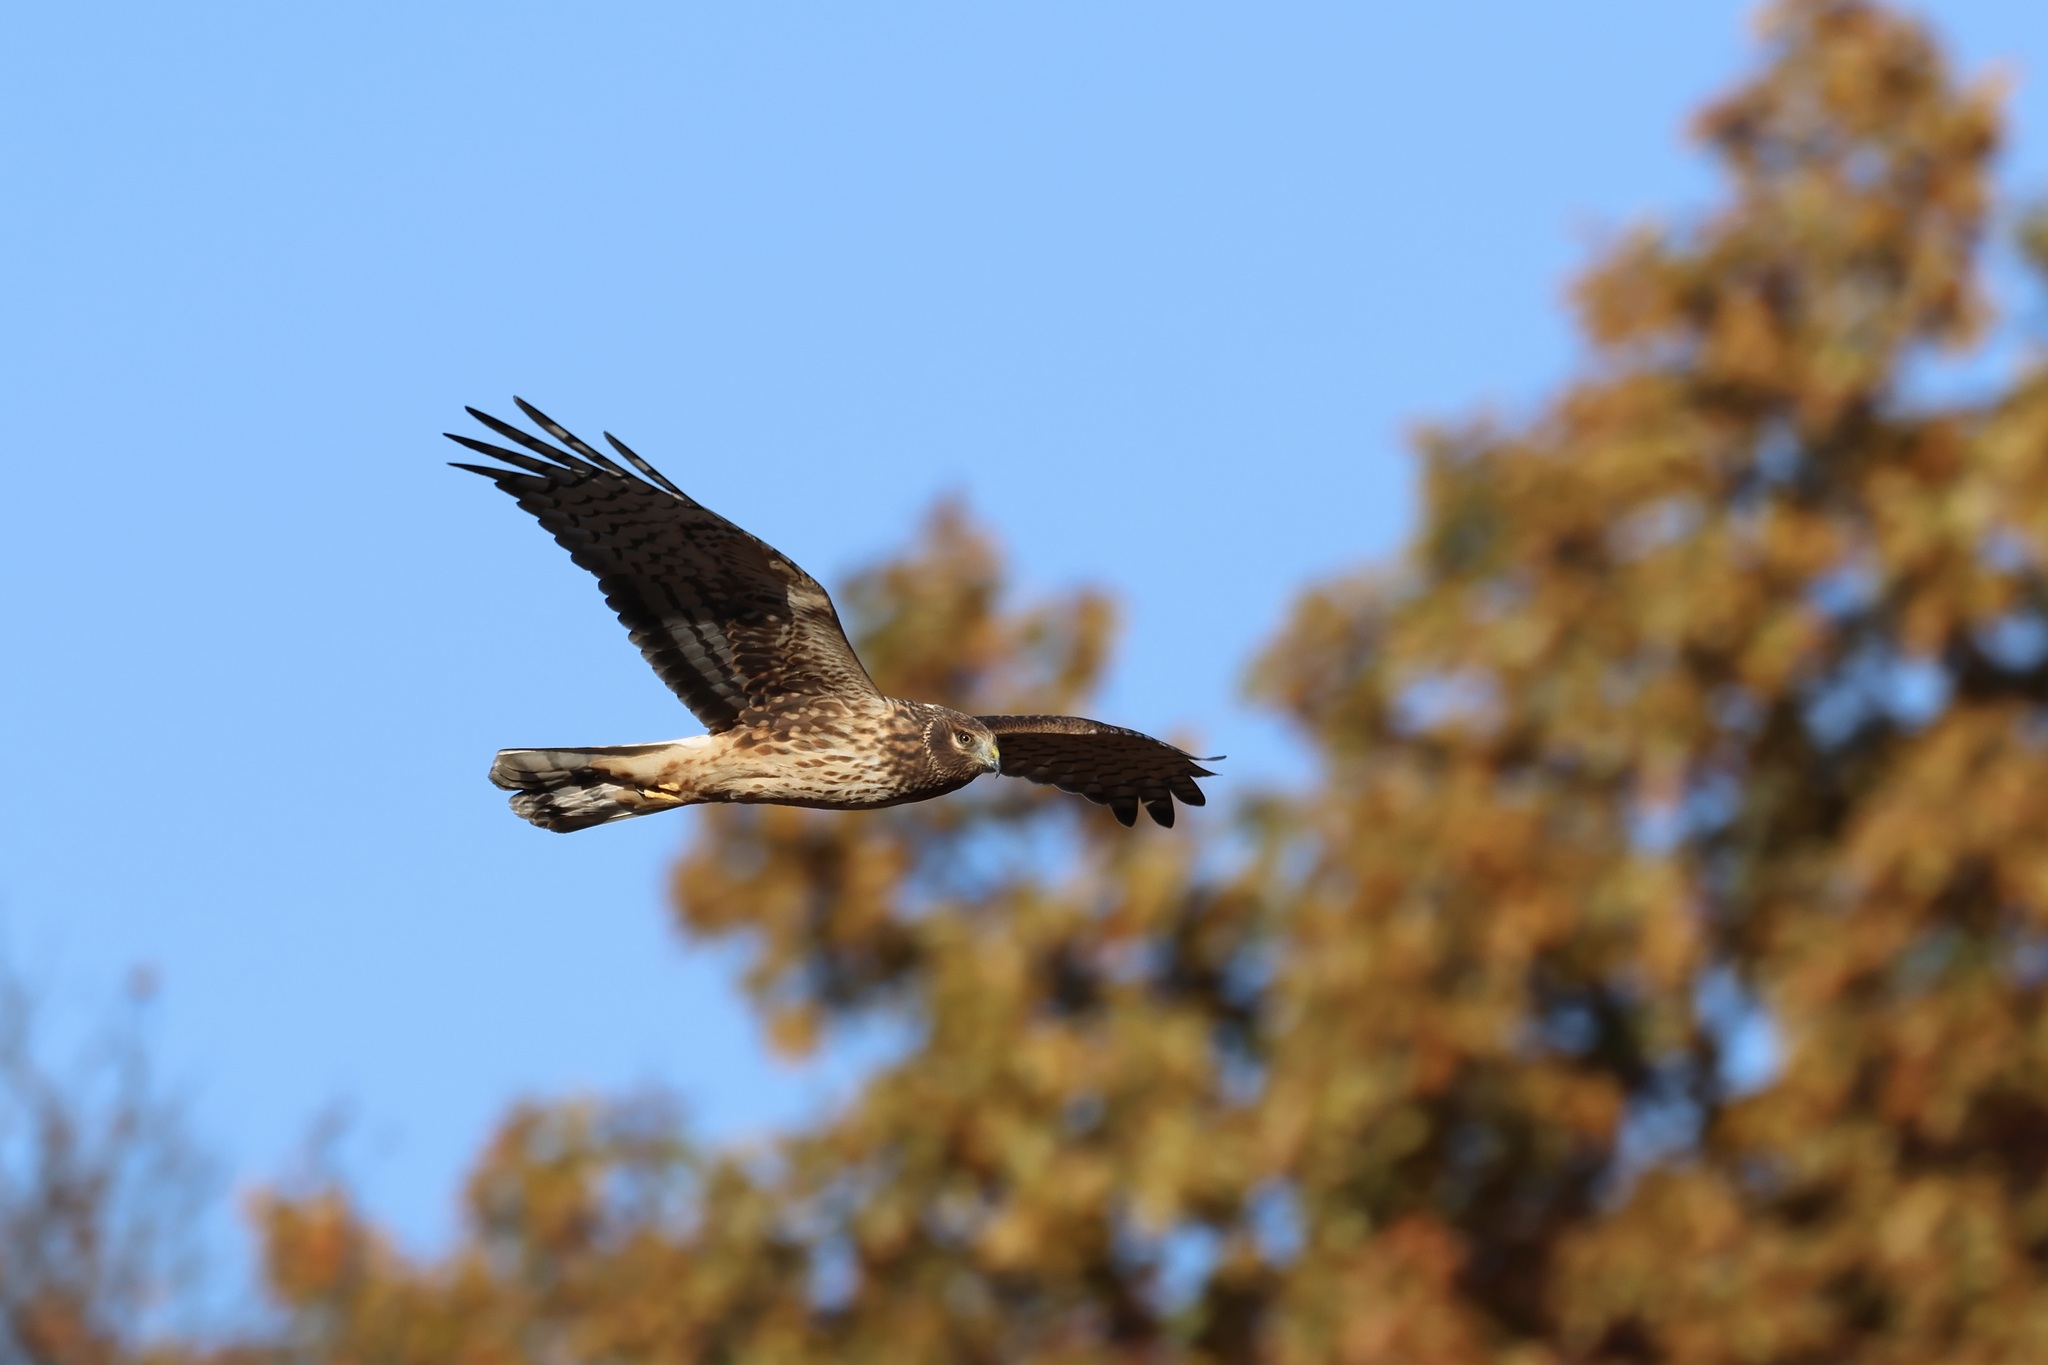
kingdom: Animalia
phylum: Chordata
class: Aves
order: Accipitriformes
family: Accipitridae
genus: Circus
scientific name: Circus cyaneus
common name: Hen harrier
